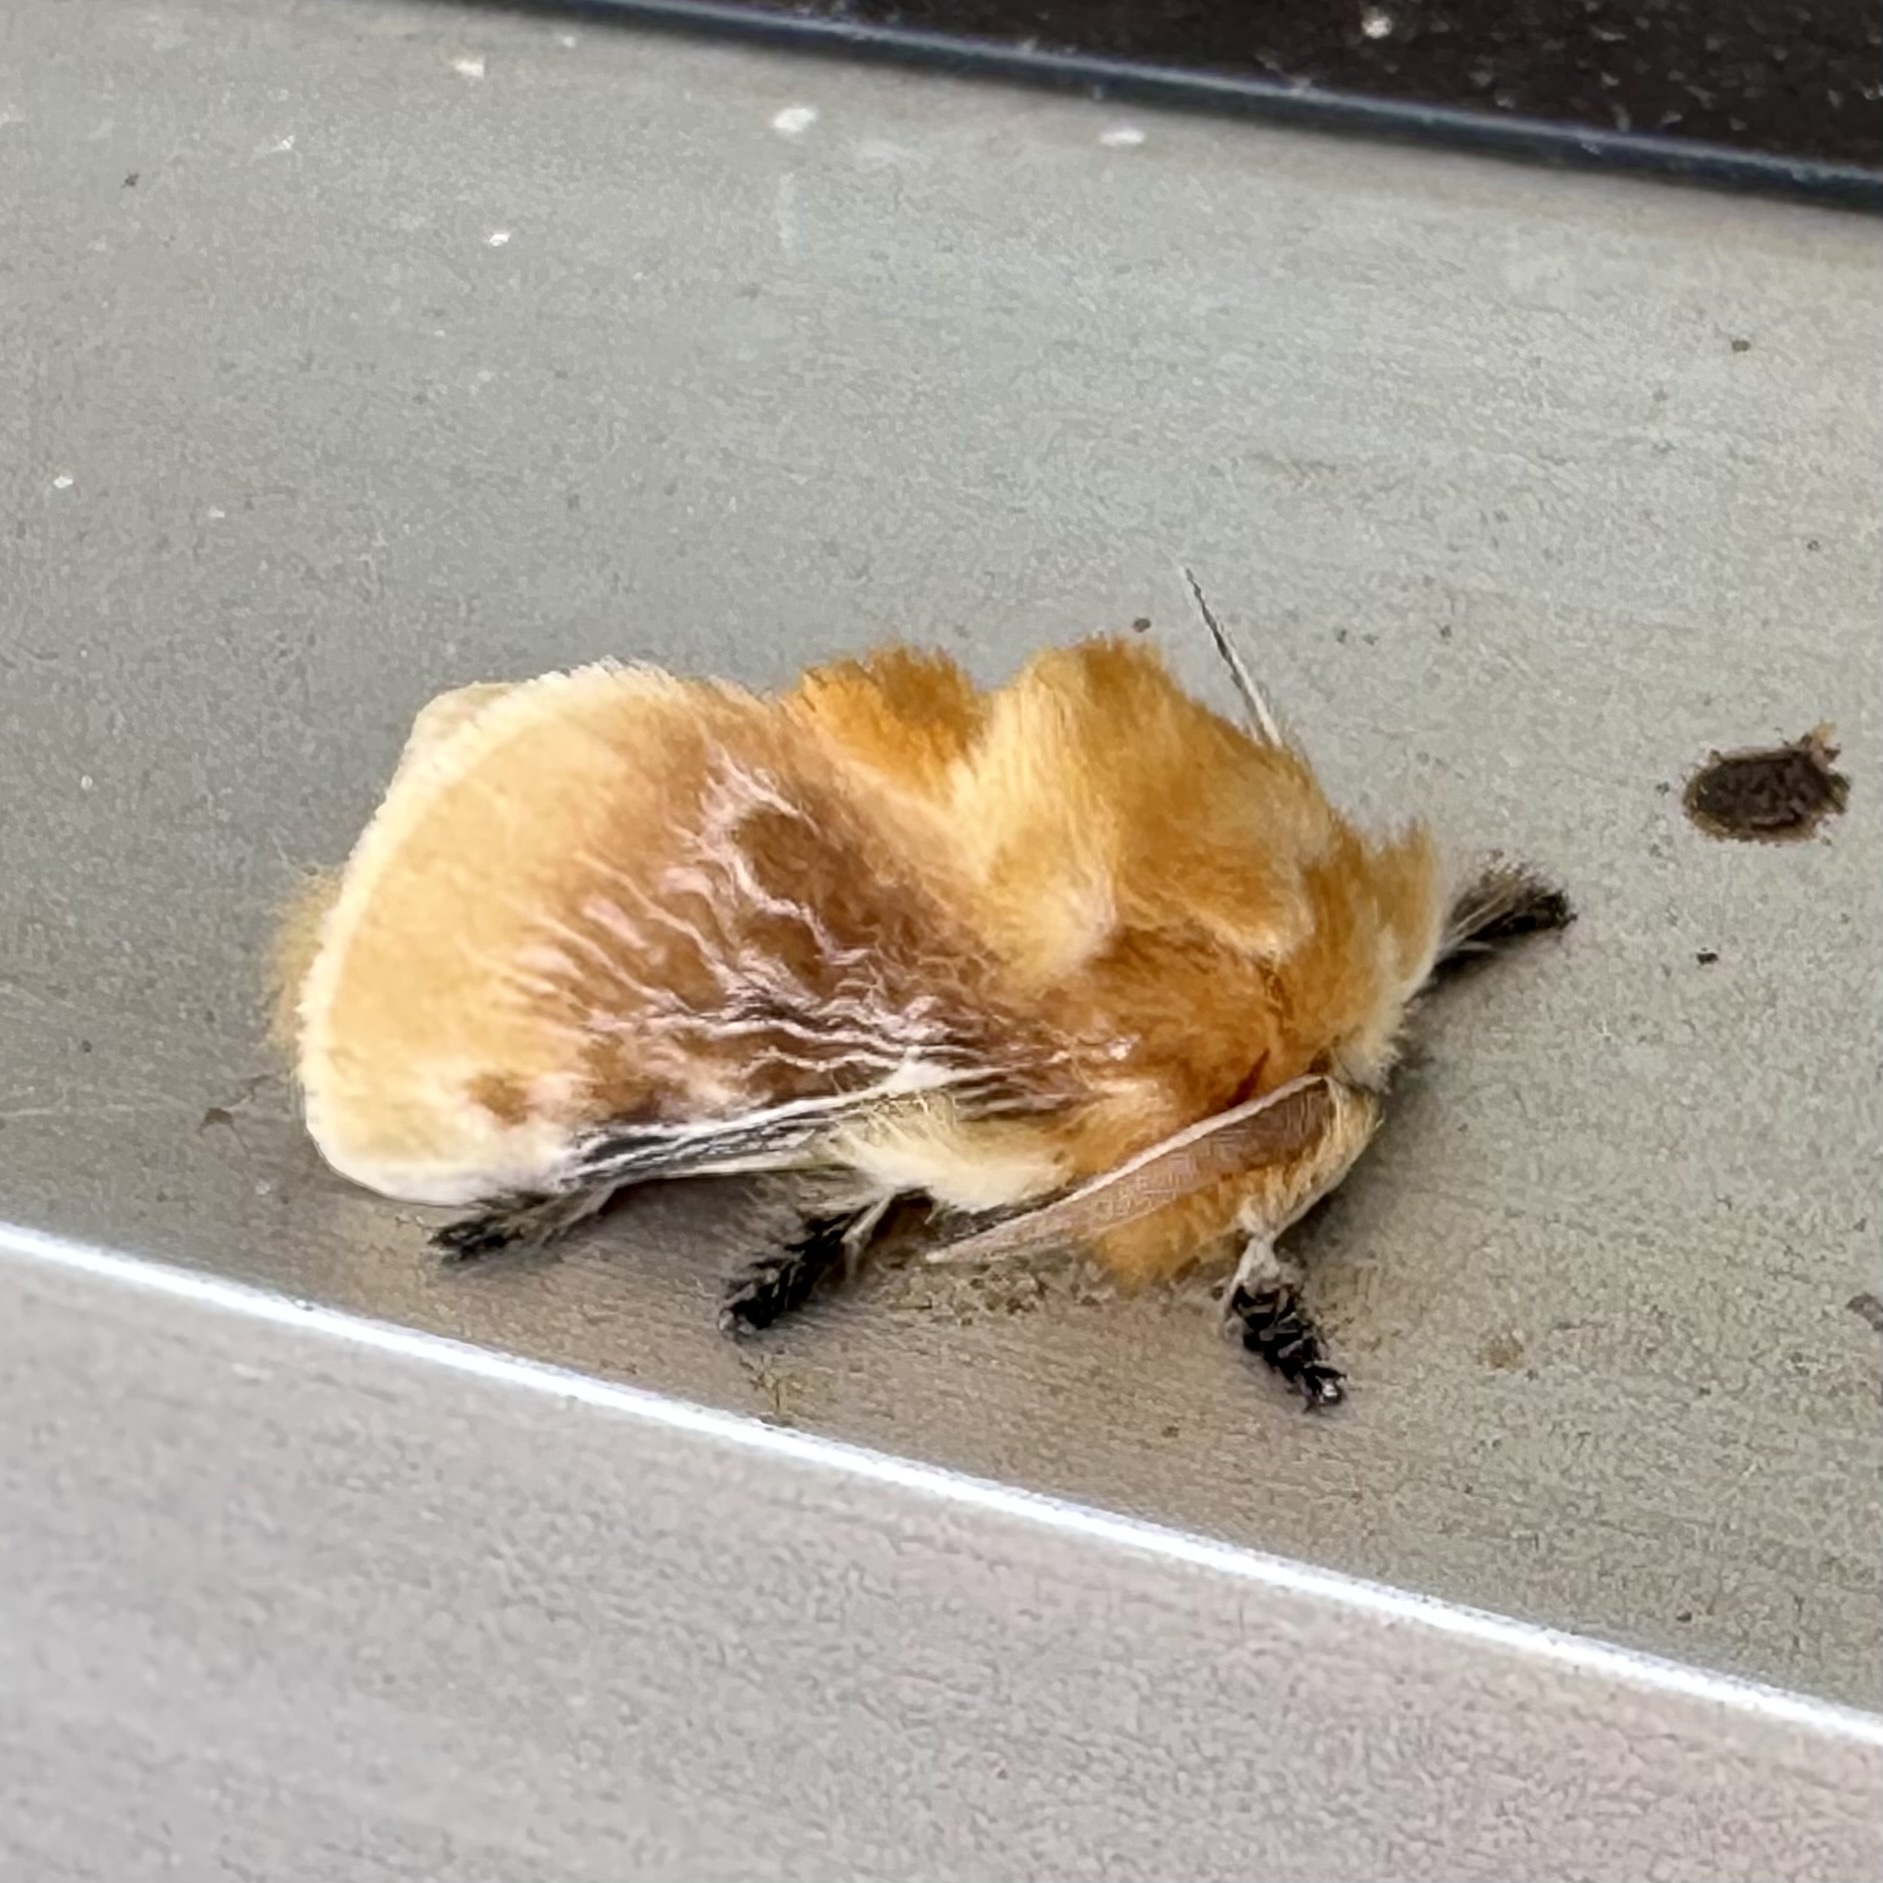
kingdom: Animalia
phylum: Arthropoda
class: Insecta
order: Lepidoptera
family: Megalopygidae
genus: Megalopyge
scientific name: Megalopyge opercularis
